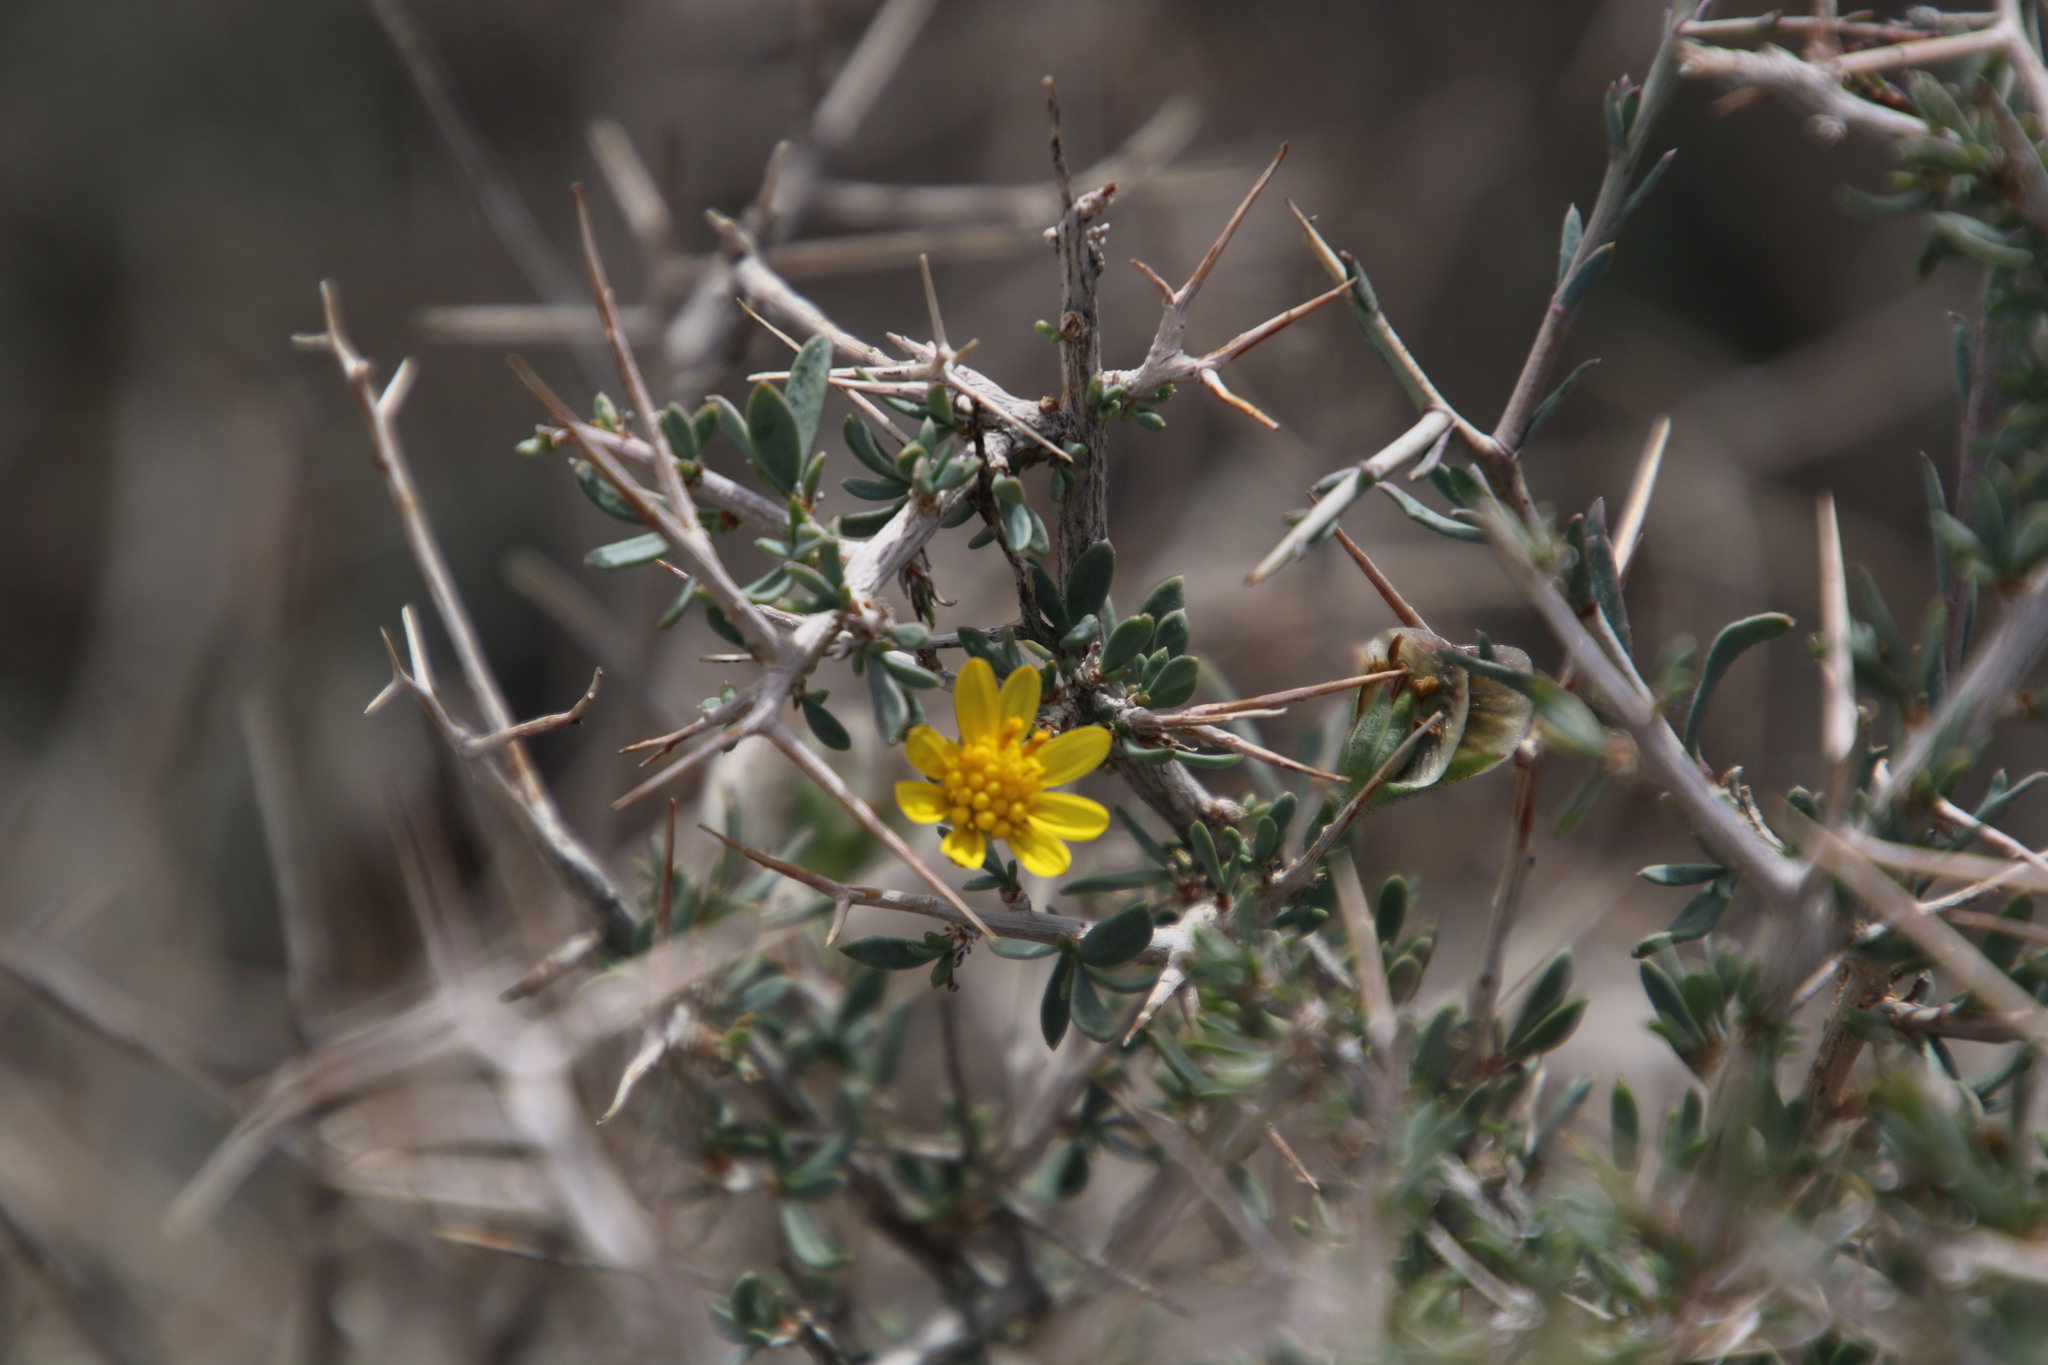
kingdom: Plantae
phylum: Tracheophyta
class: Magnoliopsida
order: Asterales
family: Asteraceae
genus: Osteospermum
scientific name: Osteospermum sinuatum
